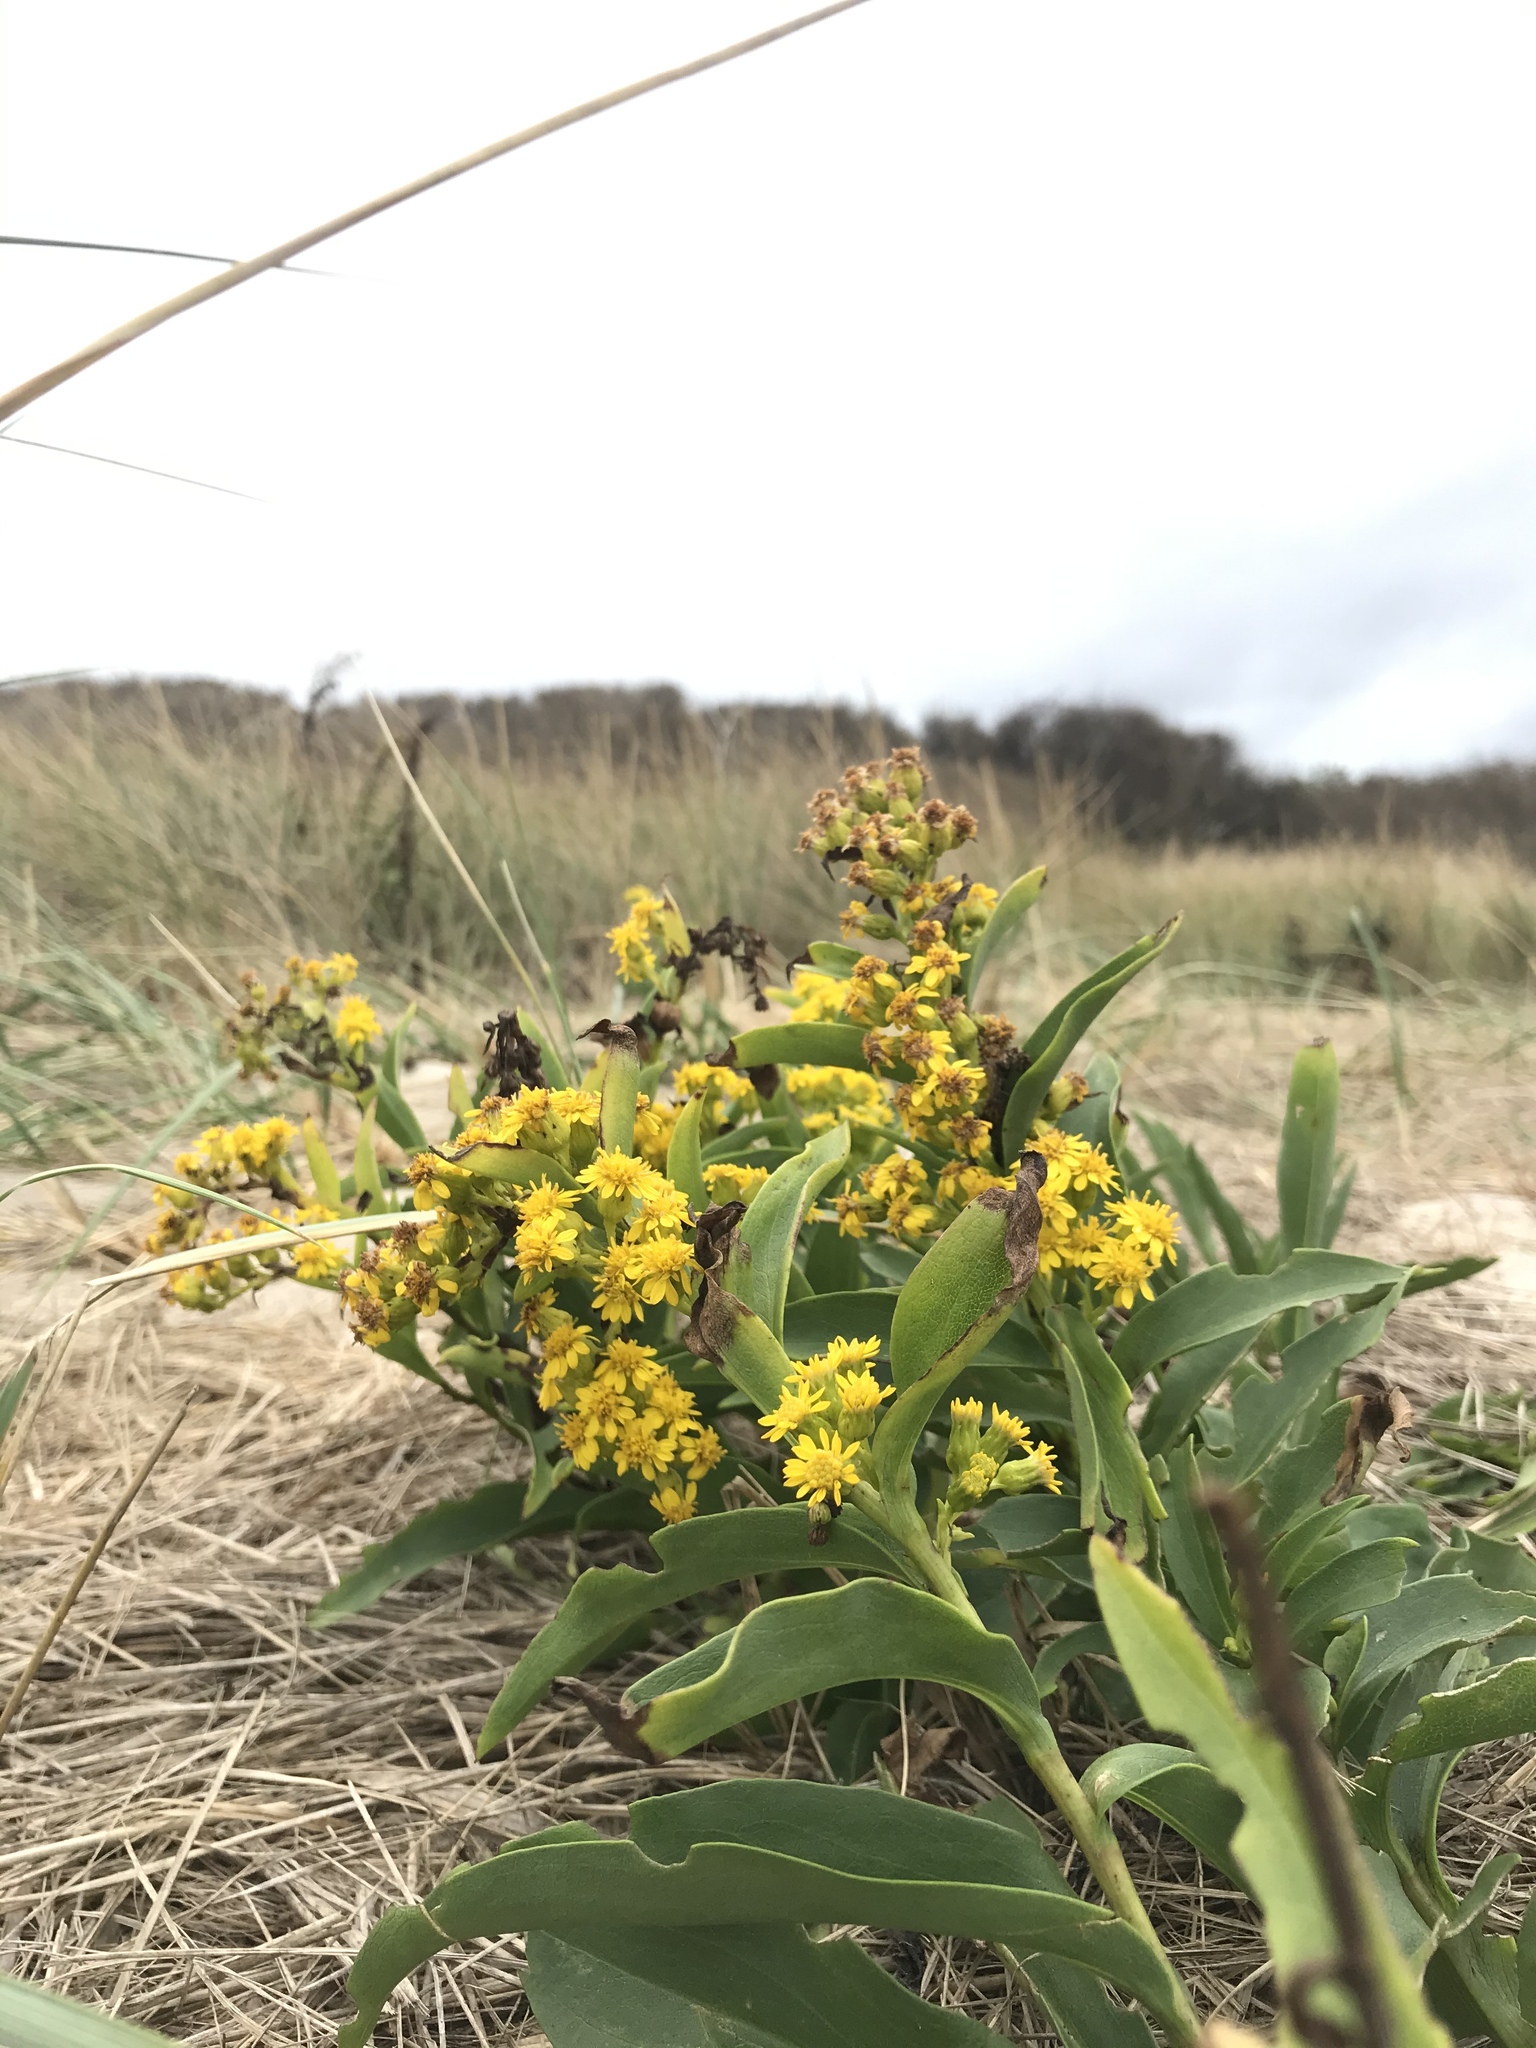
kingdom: Plantae
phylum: Tracheophyta
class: Magnoliopsida
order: Asterales
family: Asteraceae
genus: Solidago
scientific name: Solidago sempervirens
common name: Salt-marsh goldenrod
